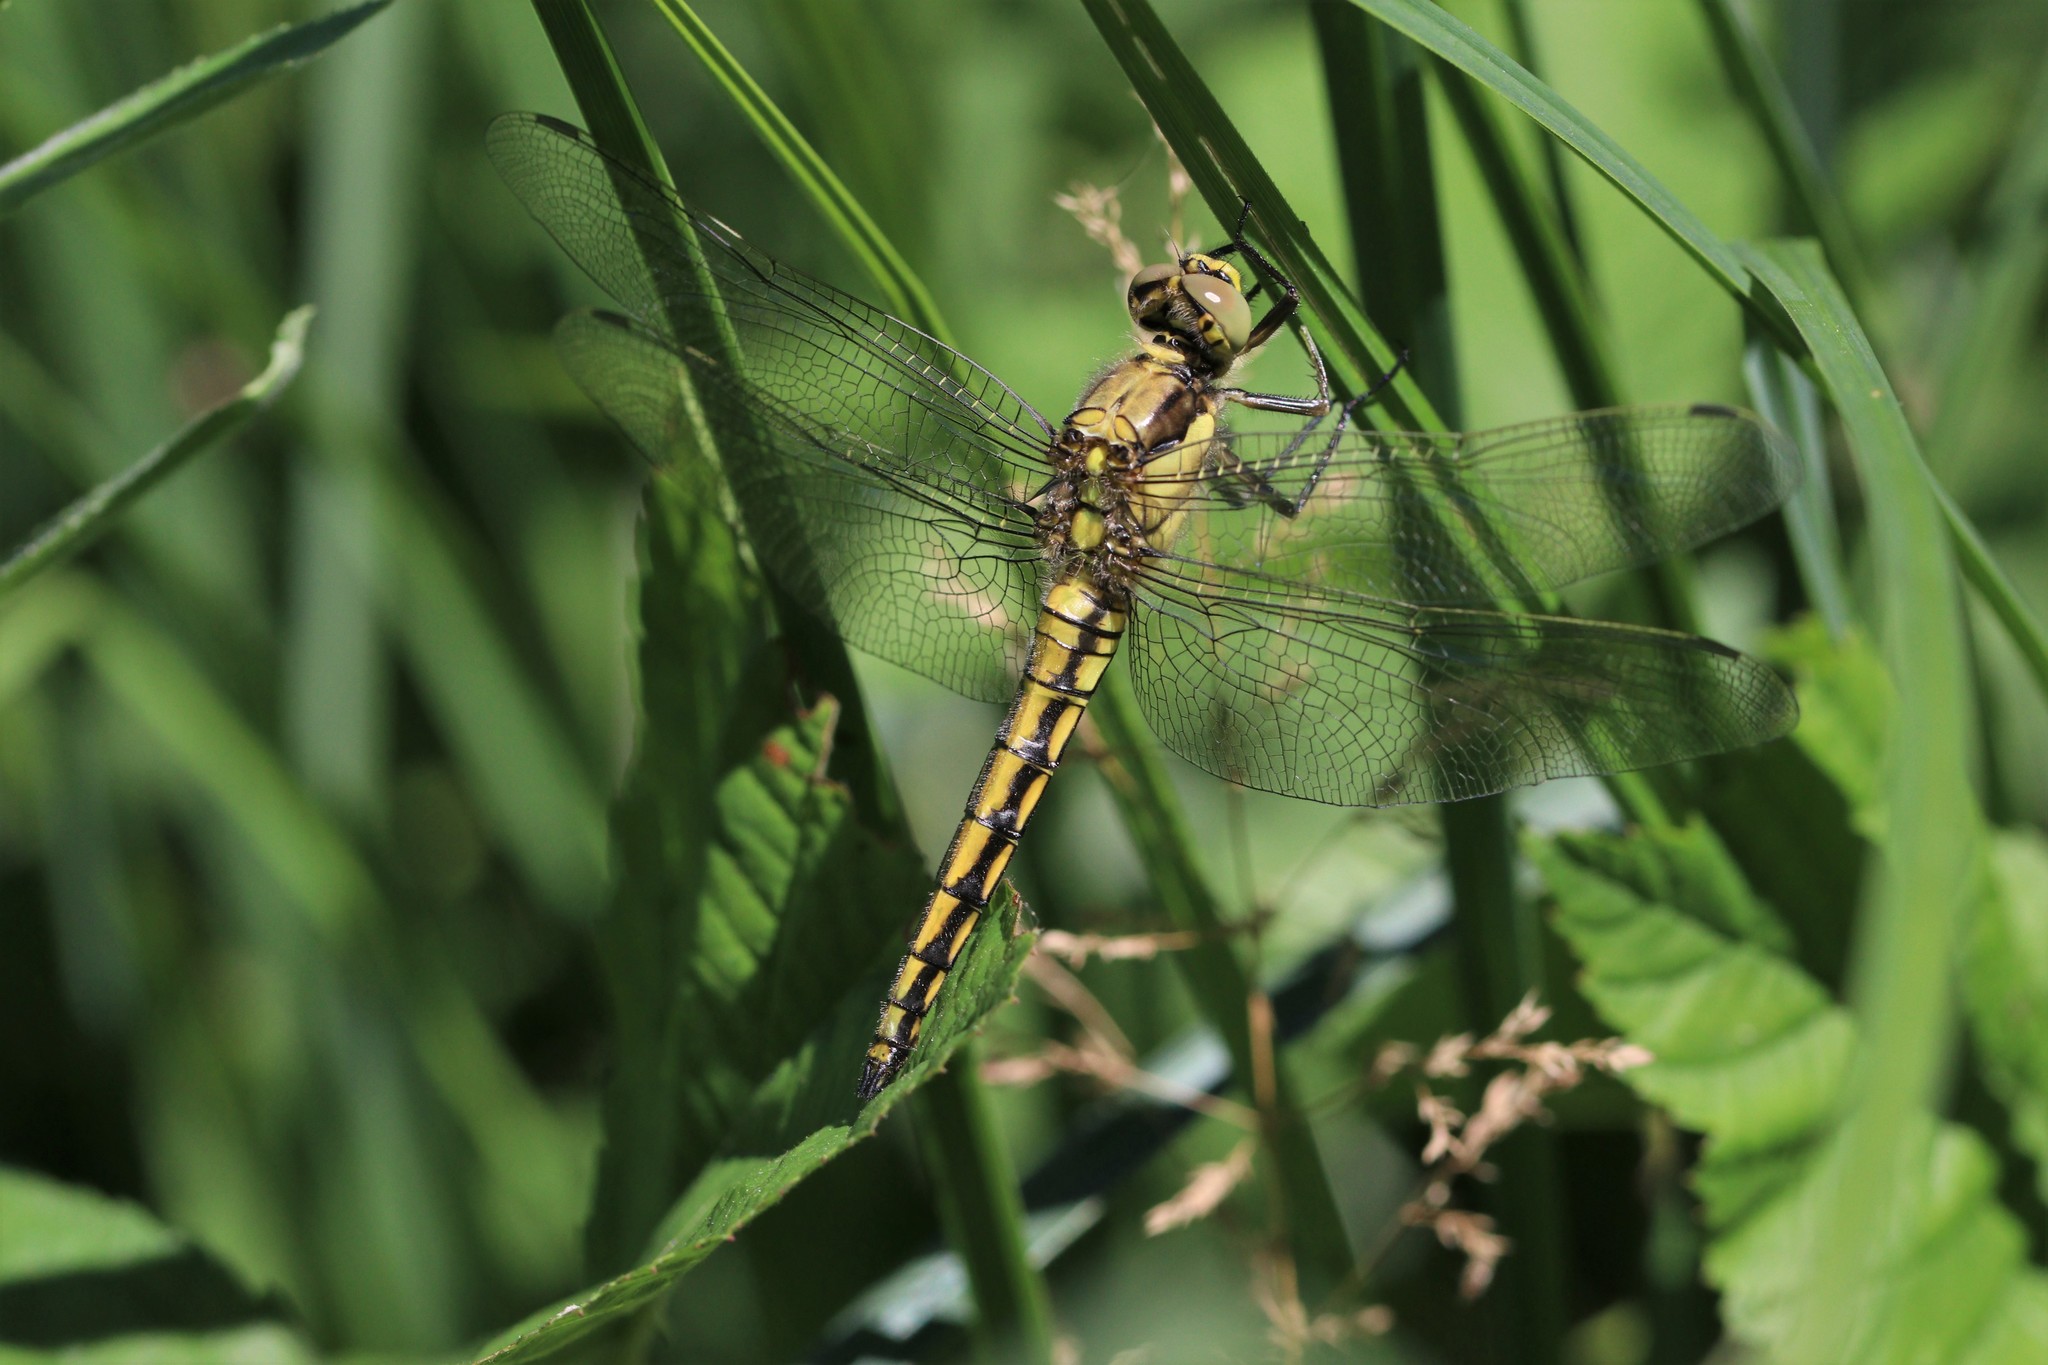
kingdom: Animalia
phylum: Arthropoda
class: Insecta
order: Odonata
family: Libellulidae
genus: Orthetrum
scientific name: Orthetrum cancellatum
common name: Black-tailed skimmer
